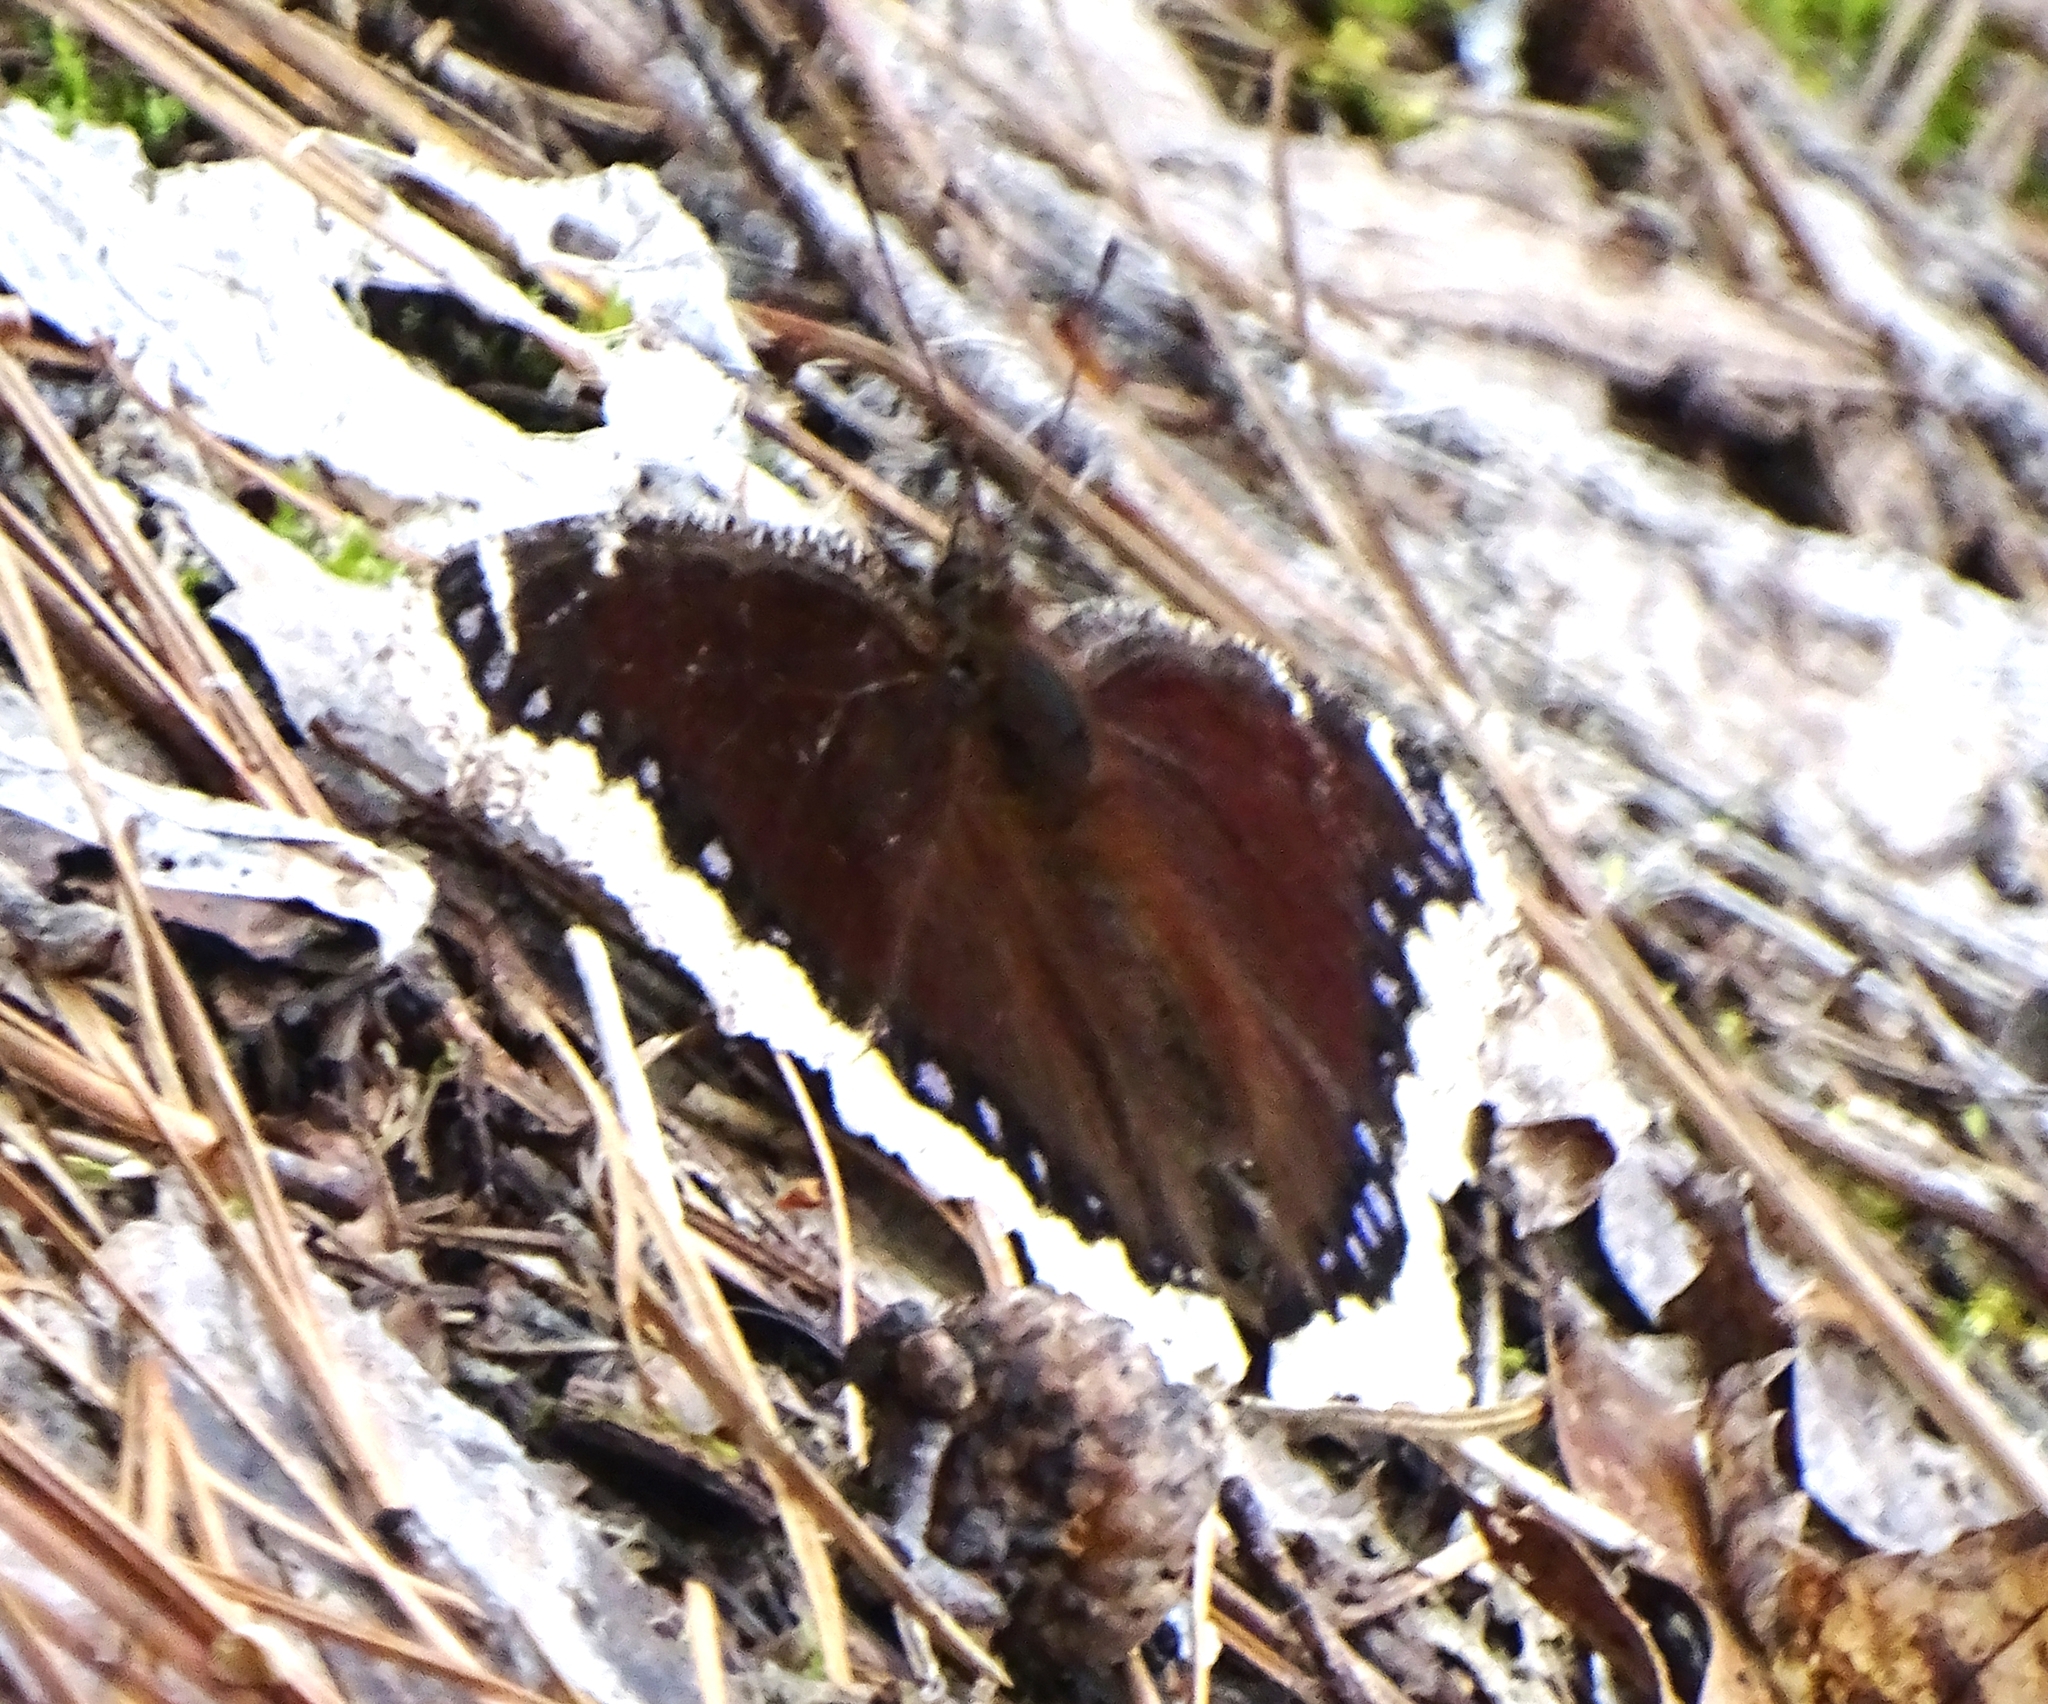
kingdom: Animalia
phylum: Arthropoda
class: Insecta
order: Lepidoptera
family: Nymphalidae
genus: Nymphalis
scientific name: Nymphalis antiopa
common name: Camberwell beauty
